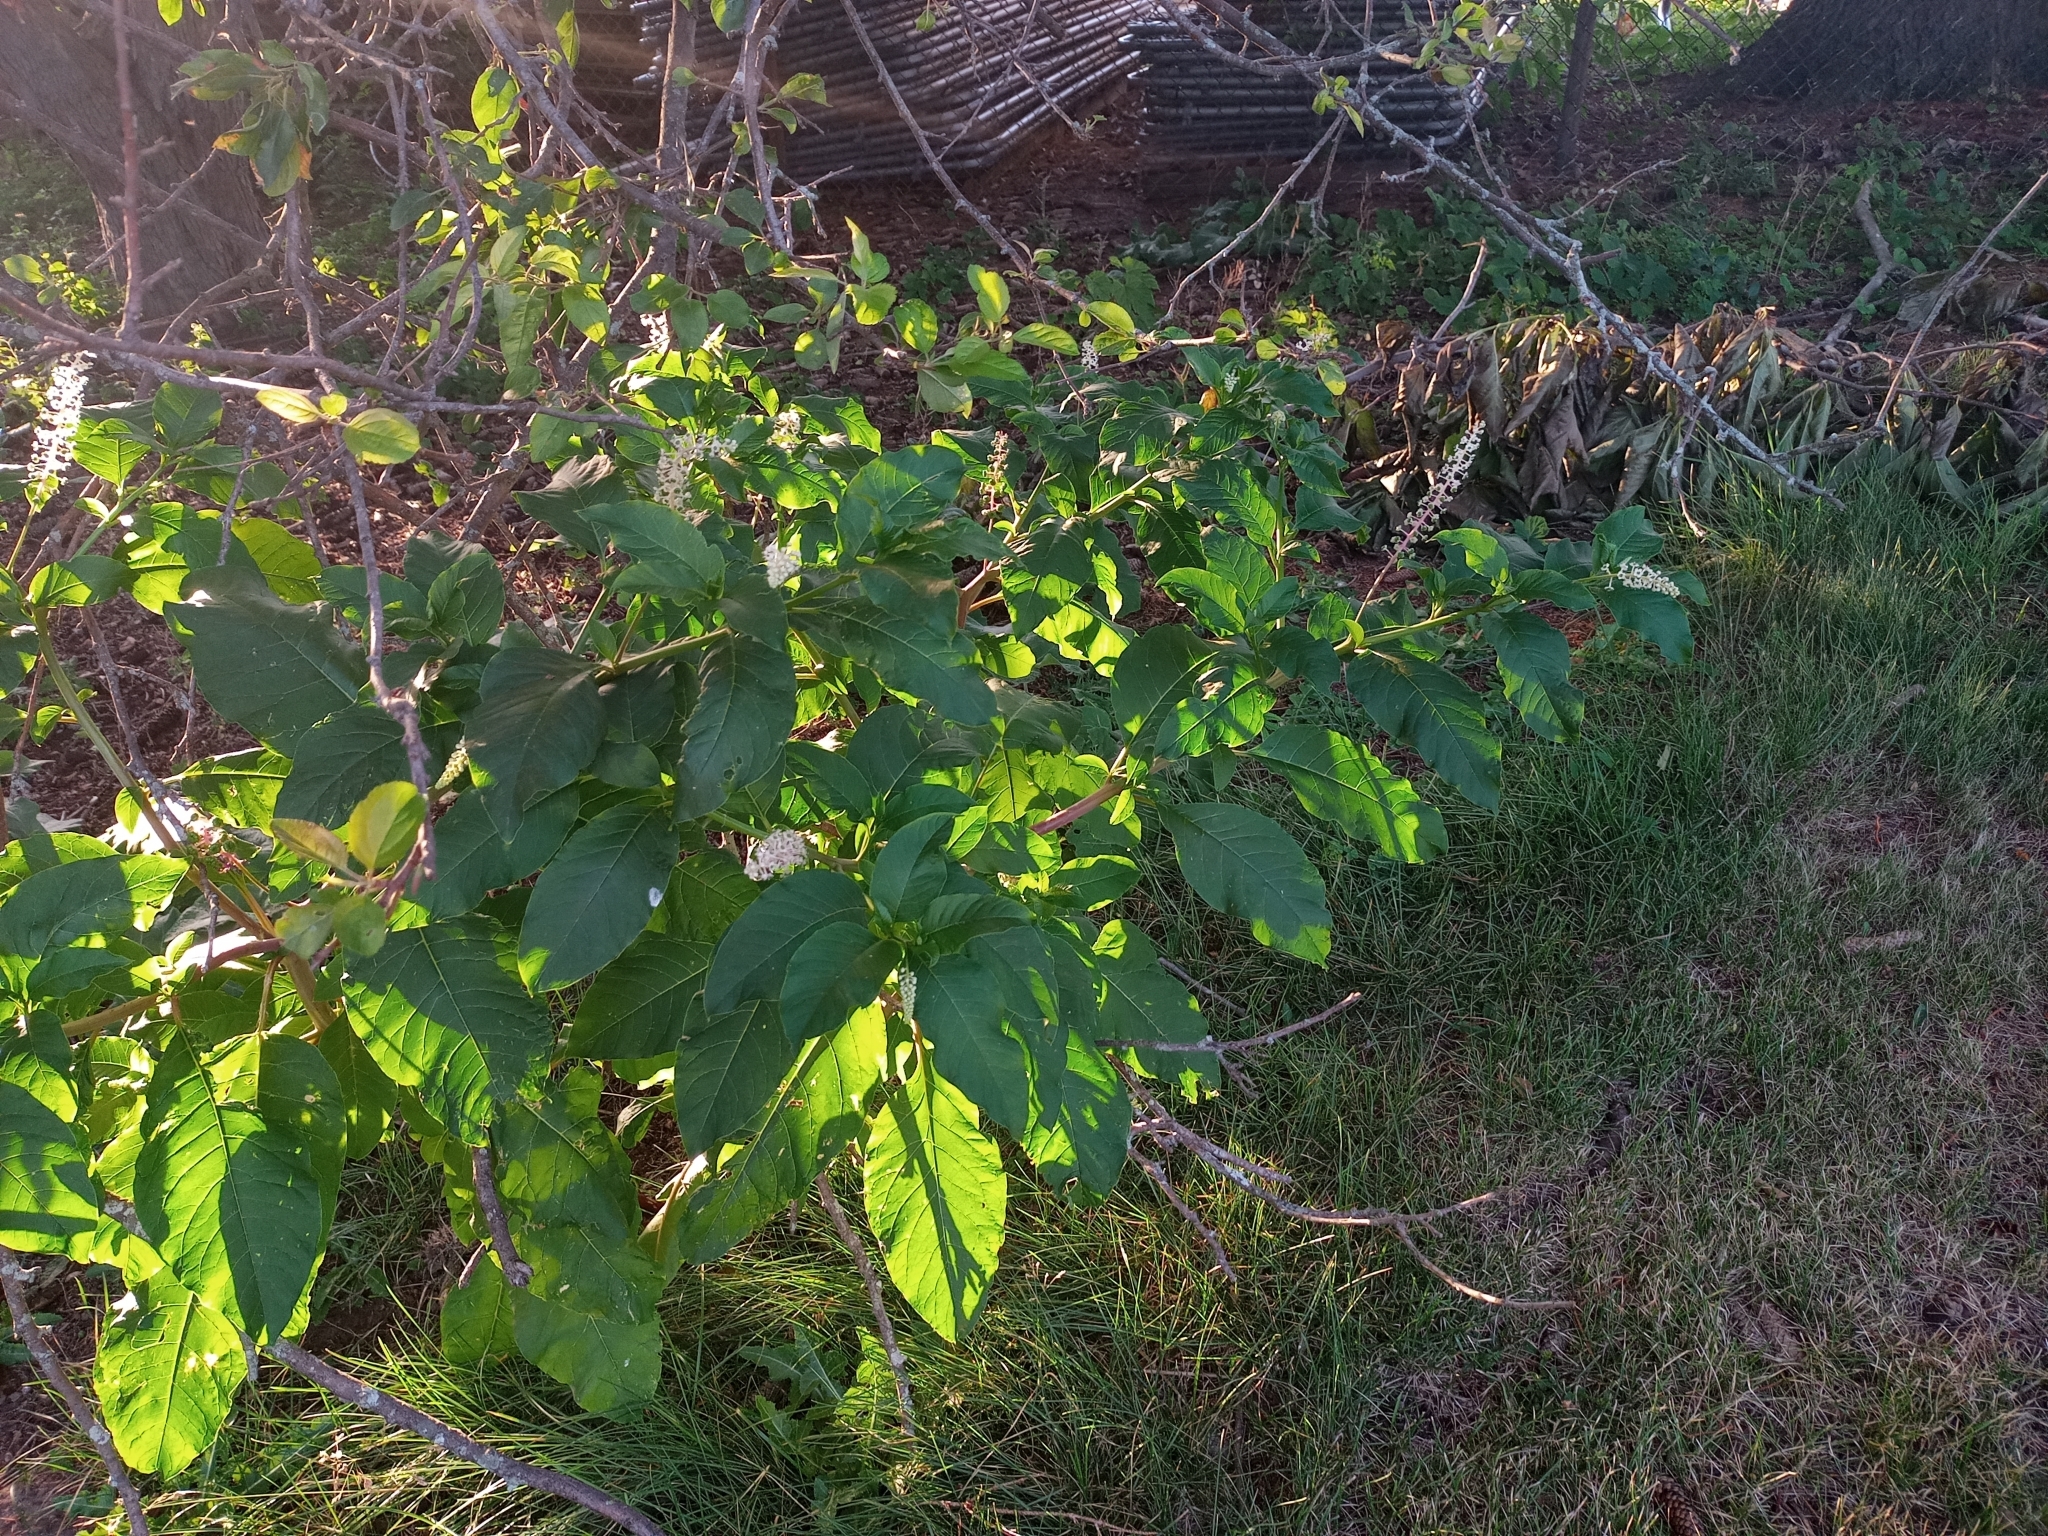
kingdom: Plantae
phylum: Tracheophyta
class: Magnoliopsida
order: Caryophyllales
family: Phytolaccaceae
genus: Phytolacca
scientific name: Phytolacca americana
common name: American pokeweed
